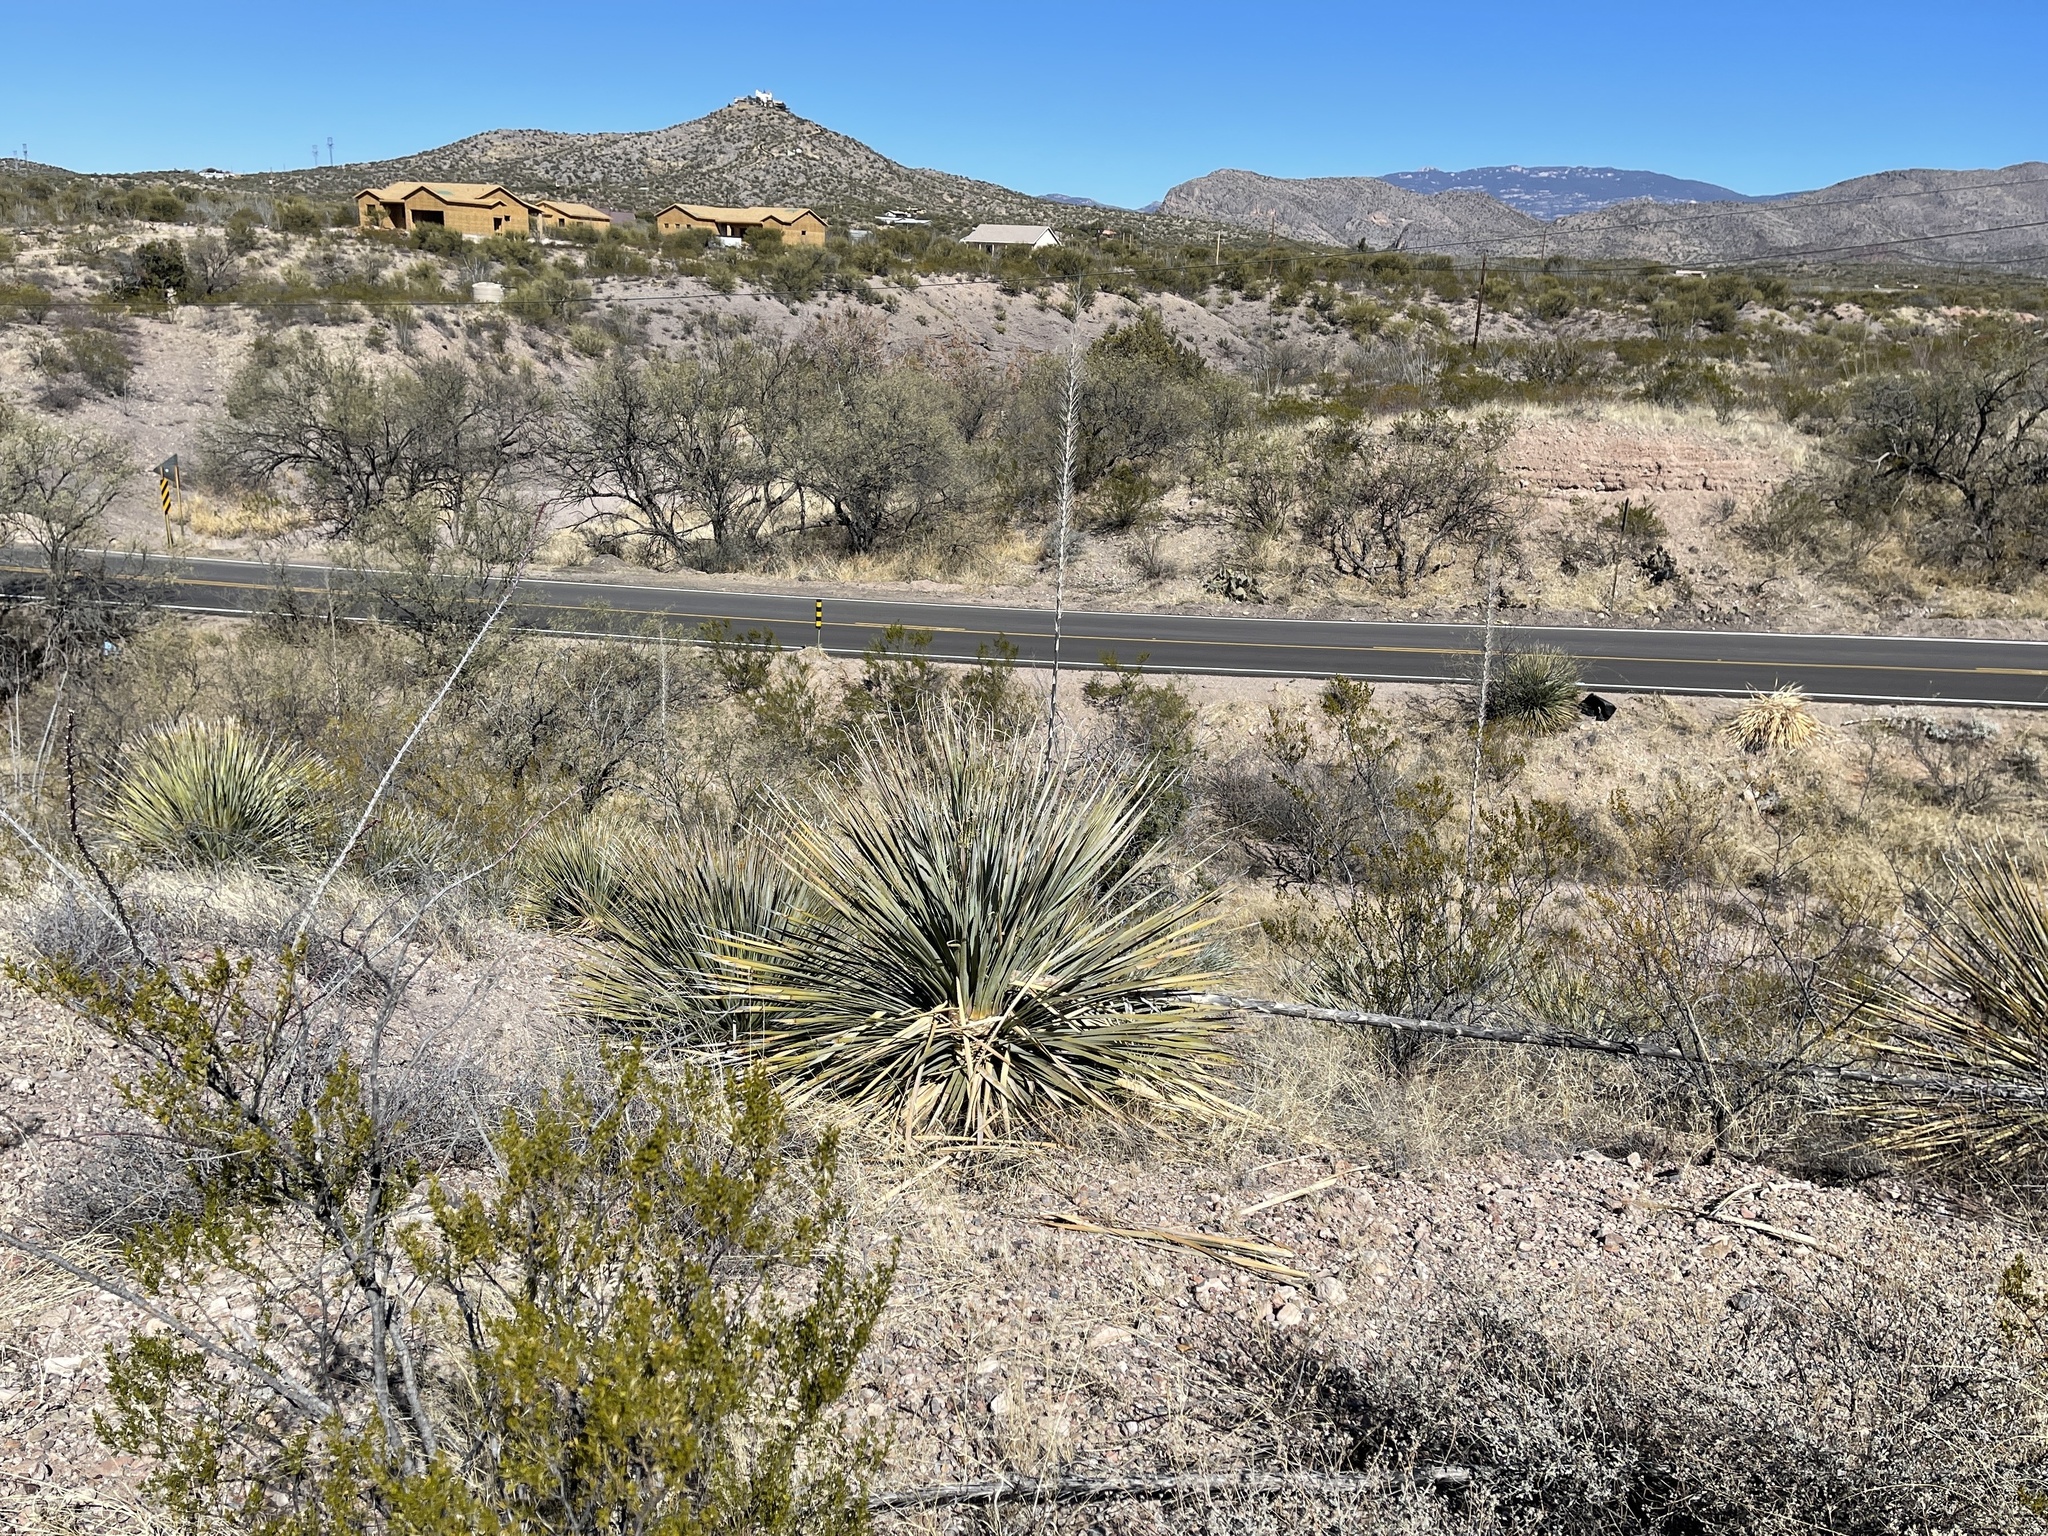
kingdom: Plantae
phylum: Tracheophyta
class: Liliopsida
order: Asparagales
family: Asparagaceae
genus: Dasylirion
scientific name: Dasylirion wheeleri
